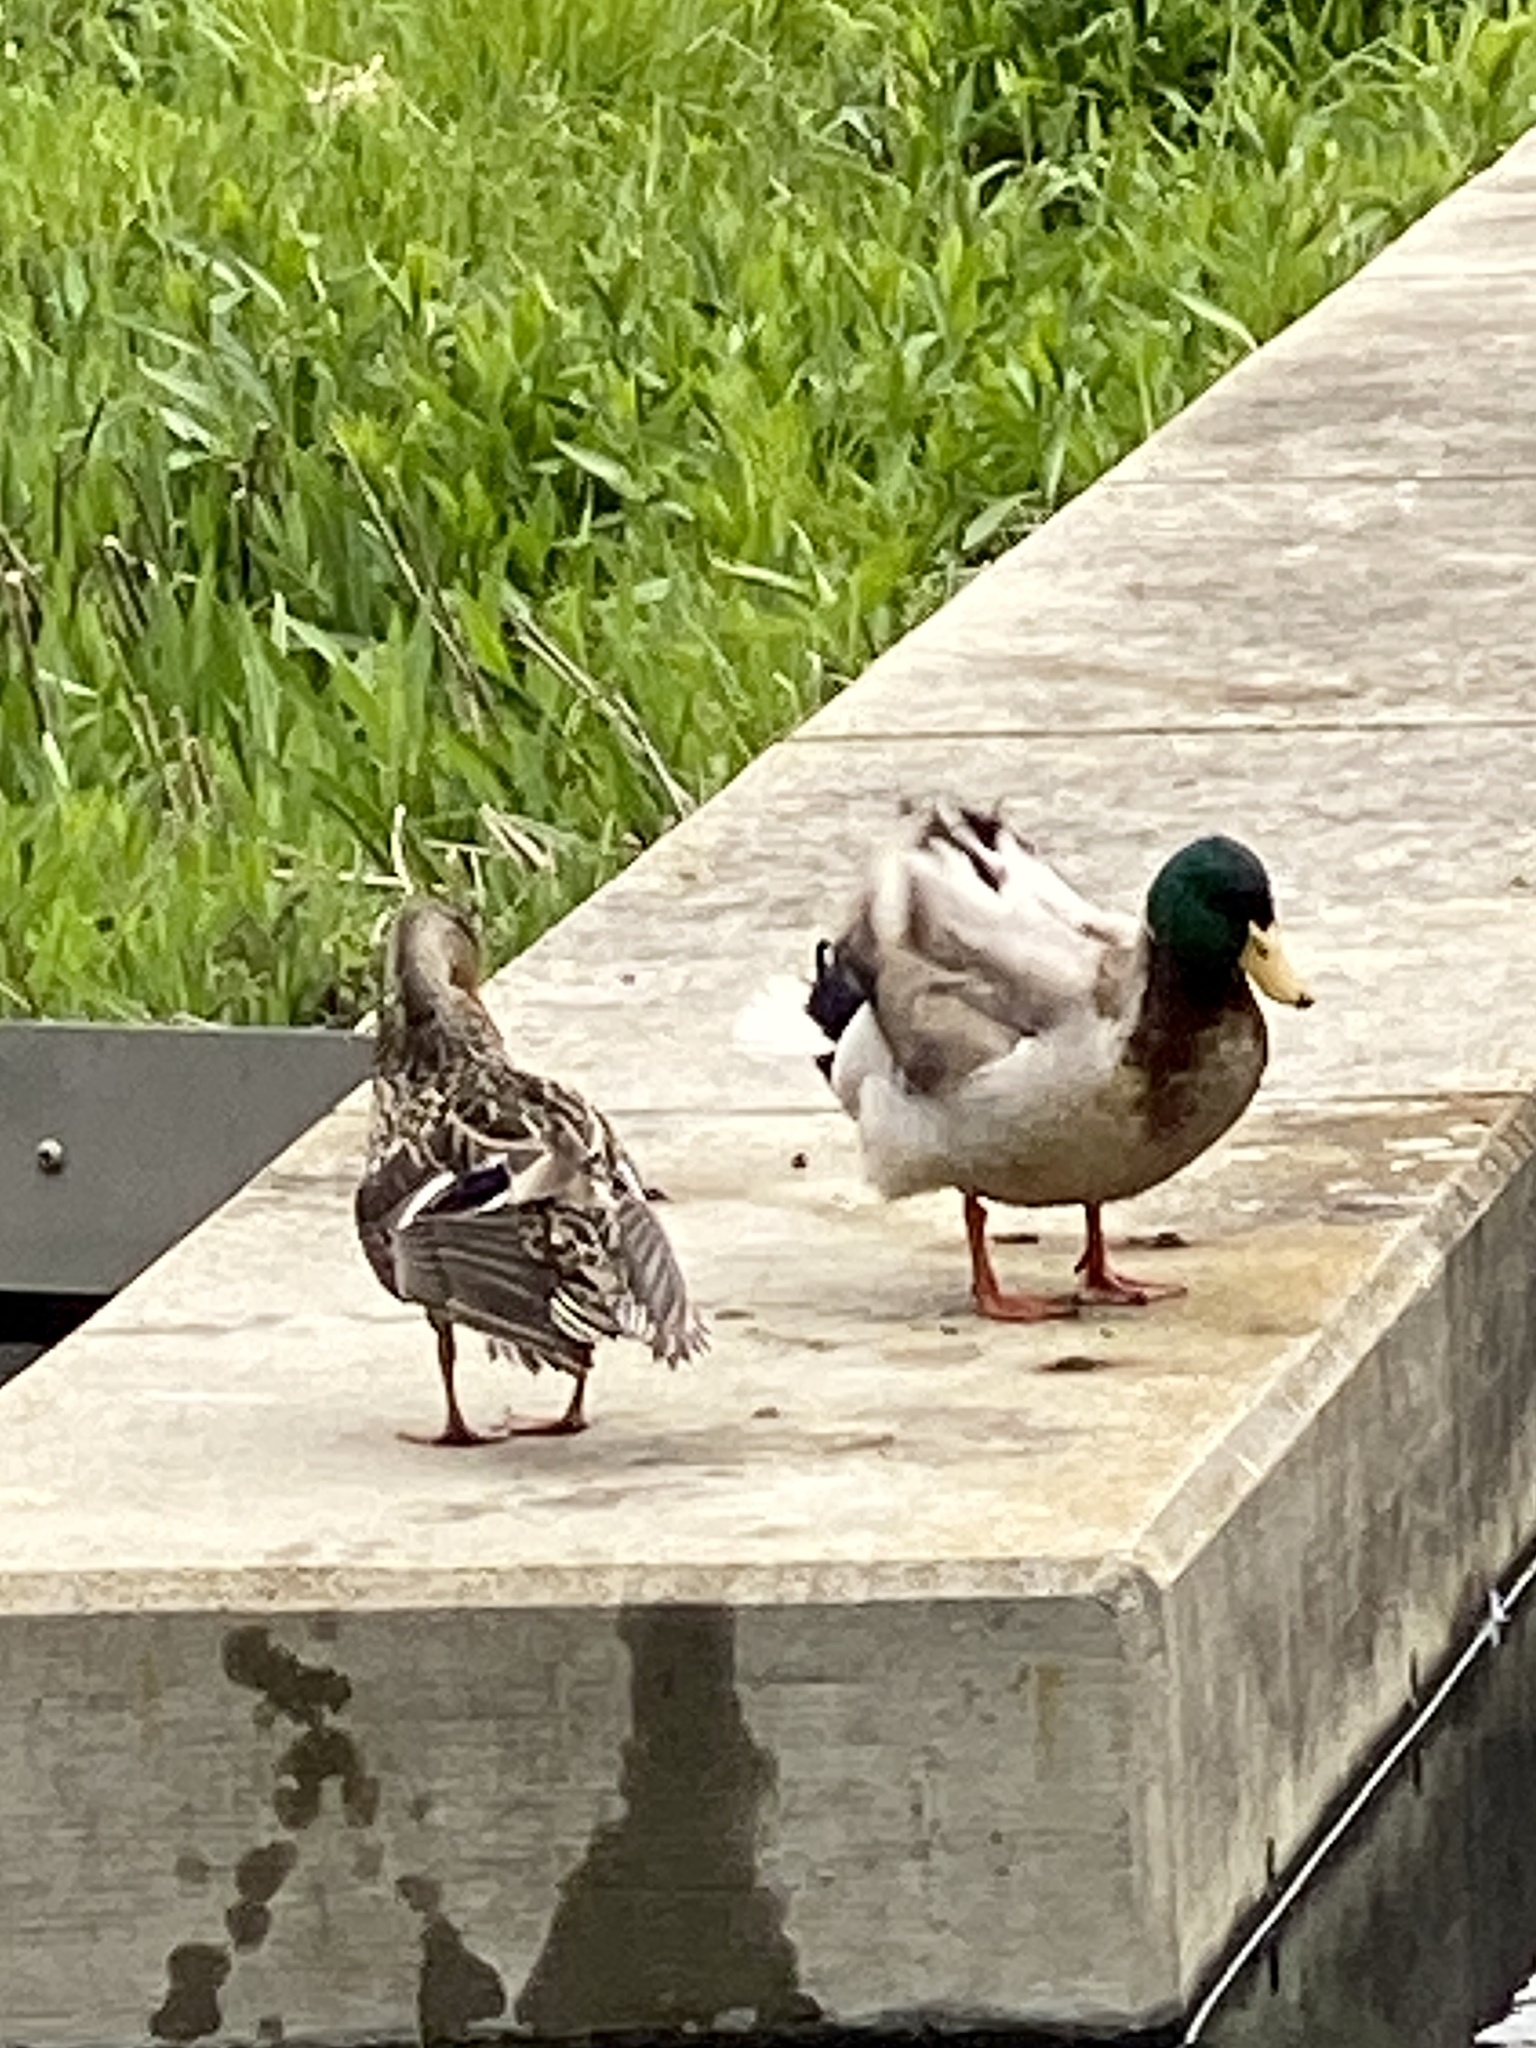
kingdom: Animalia
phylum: Chordata
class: Aves
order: Anseriformes
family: Anatidae
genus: Anas
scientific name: Anas platyrhynchos
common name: Mallard
